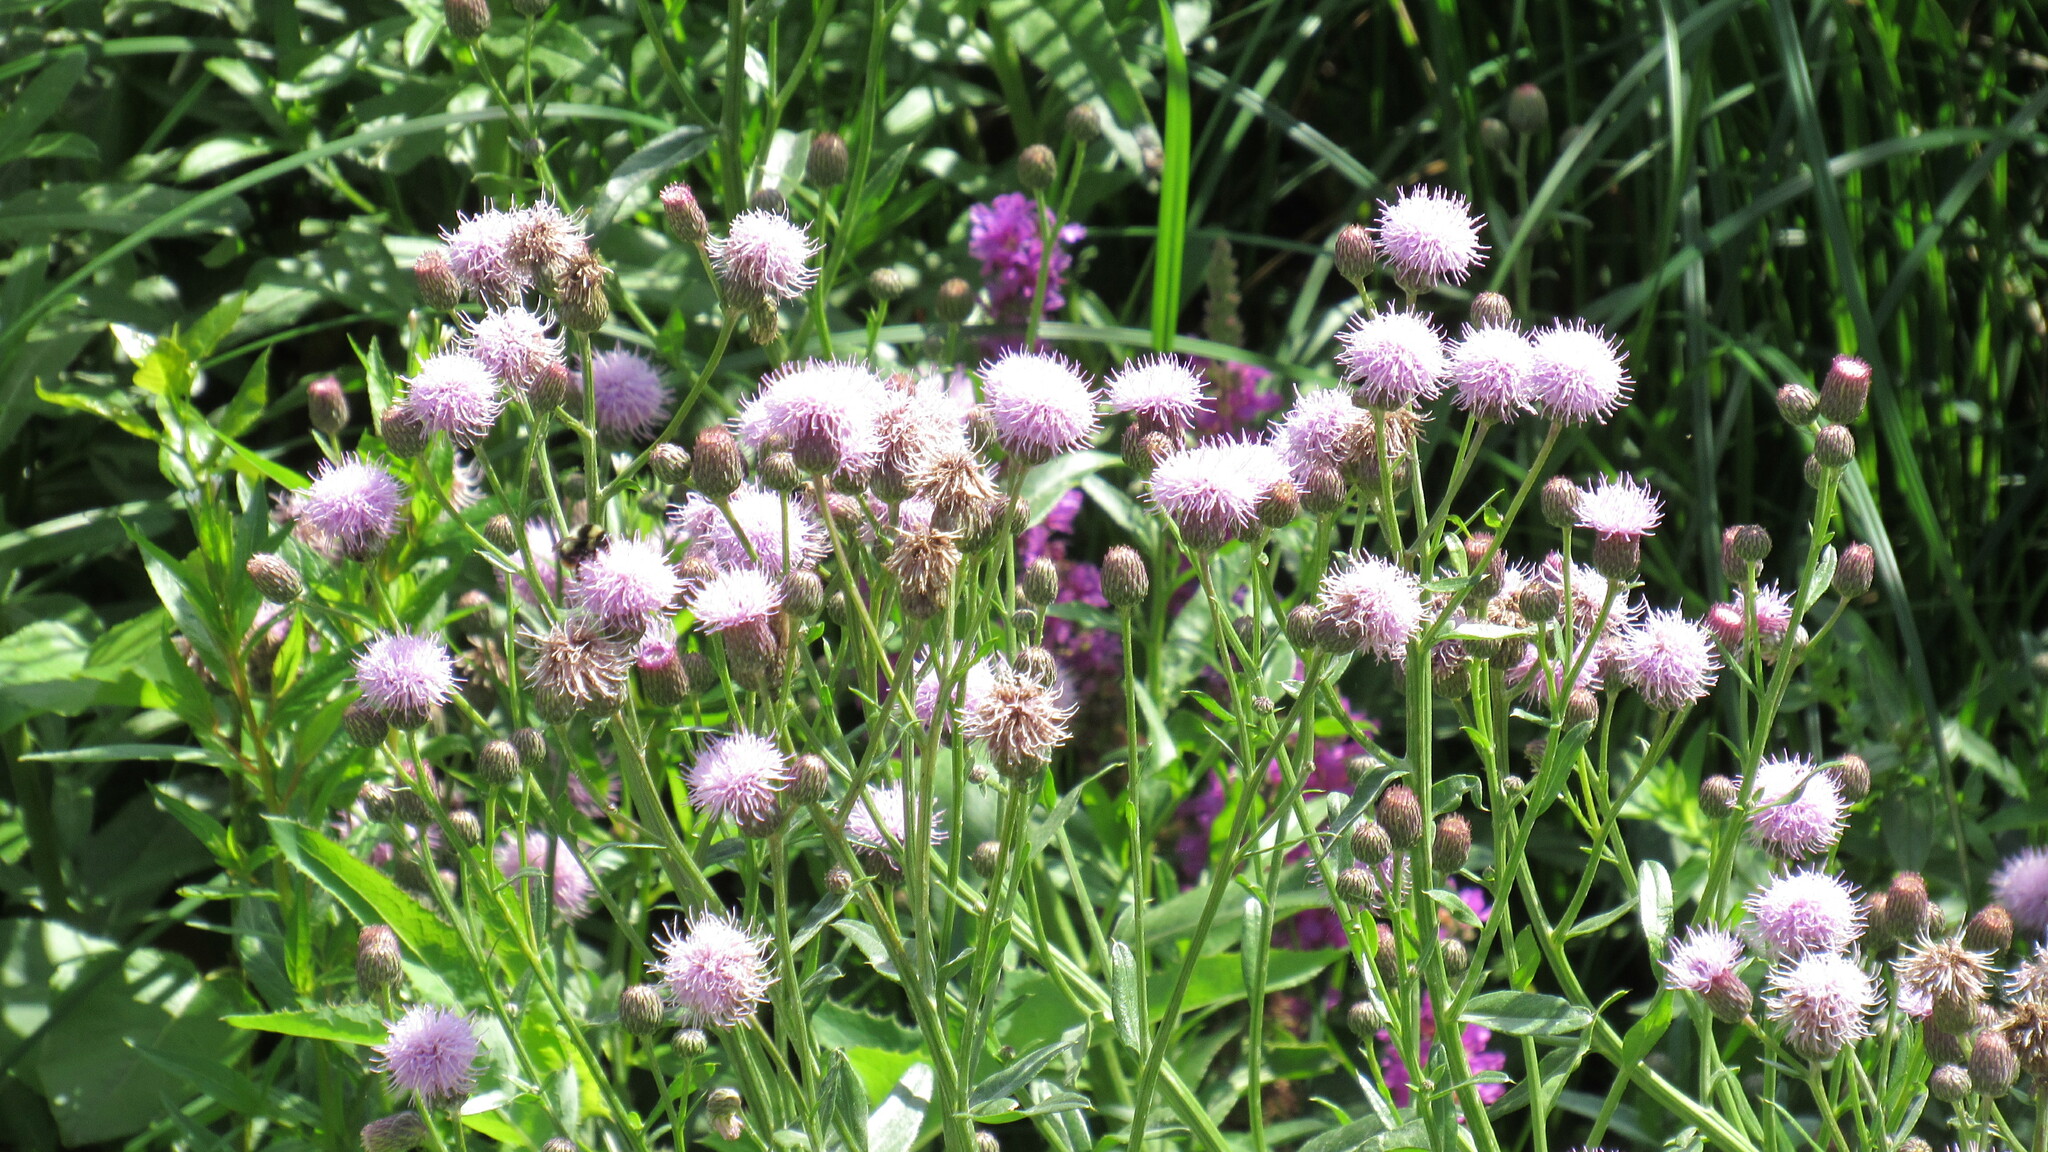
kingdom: Plantae
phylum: Tracheophyta
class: Magnoliopsida
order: Asterales
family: Asteraceae
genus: Cirsium
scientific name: Cirsium arvense
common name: Creeping thistle
